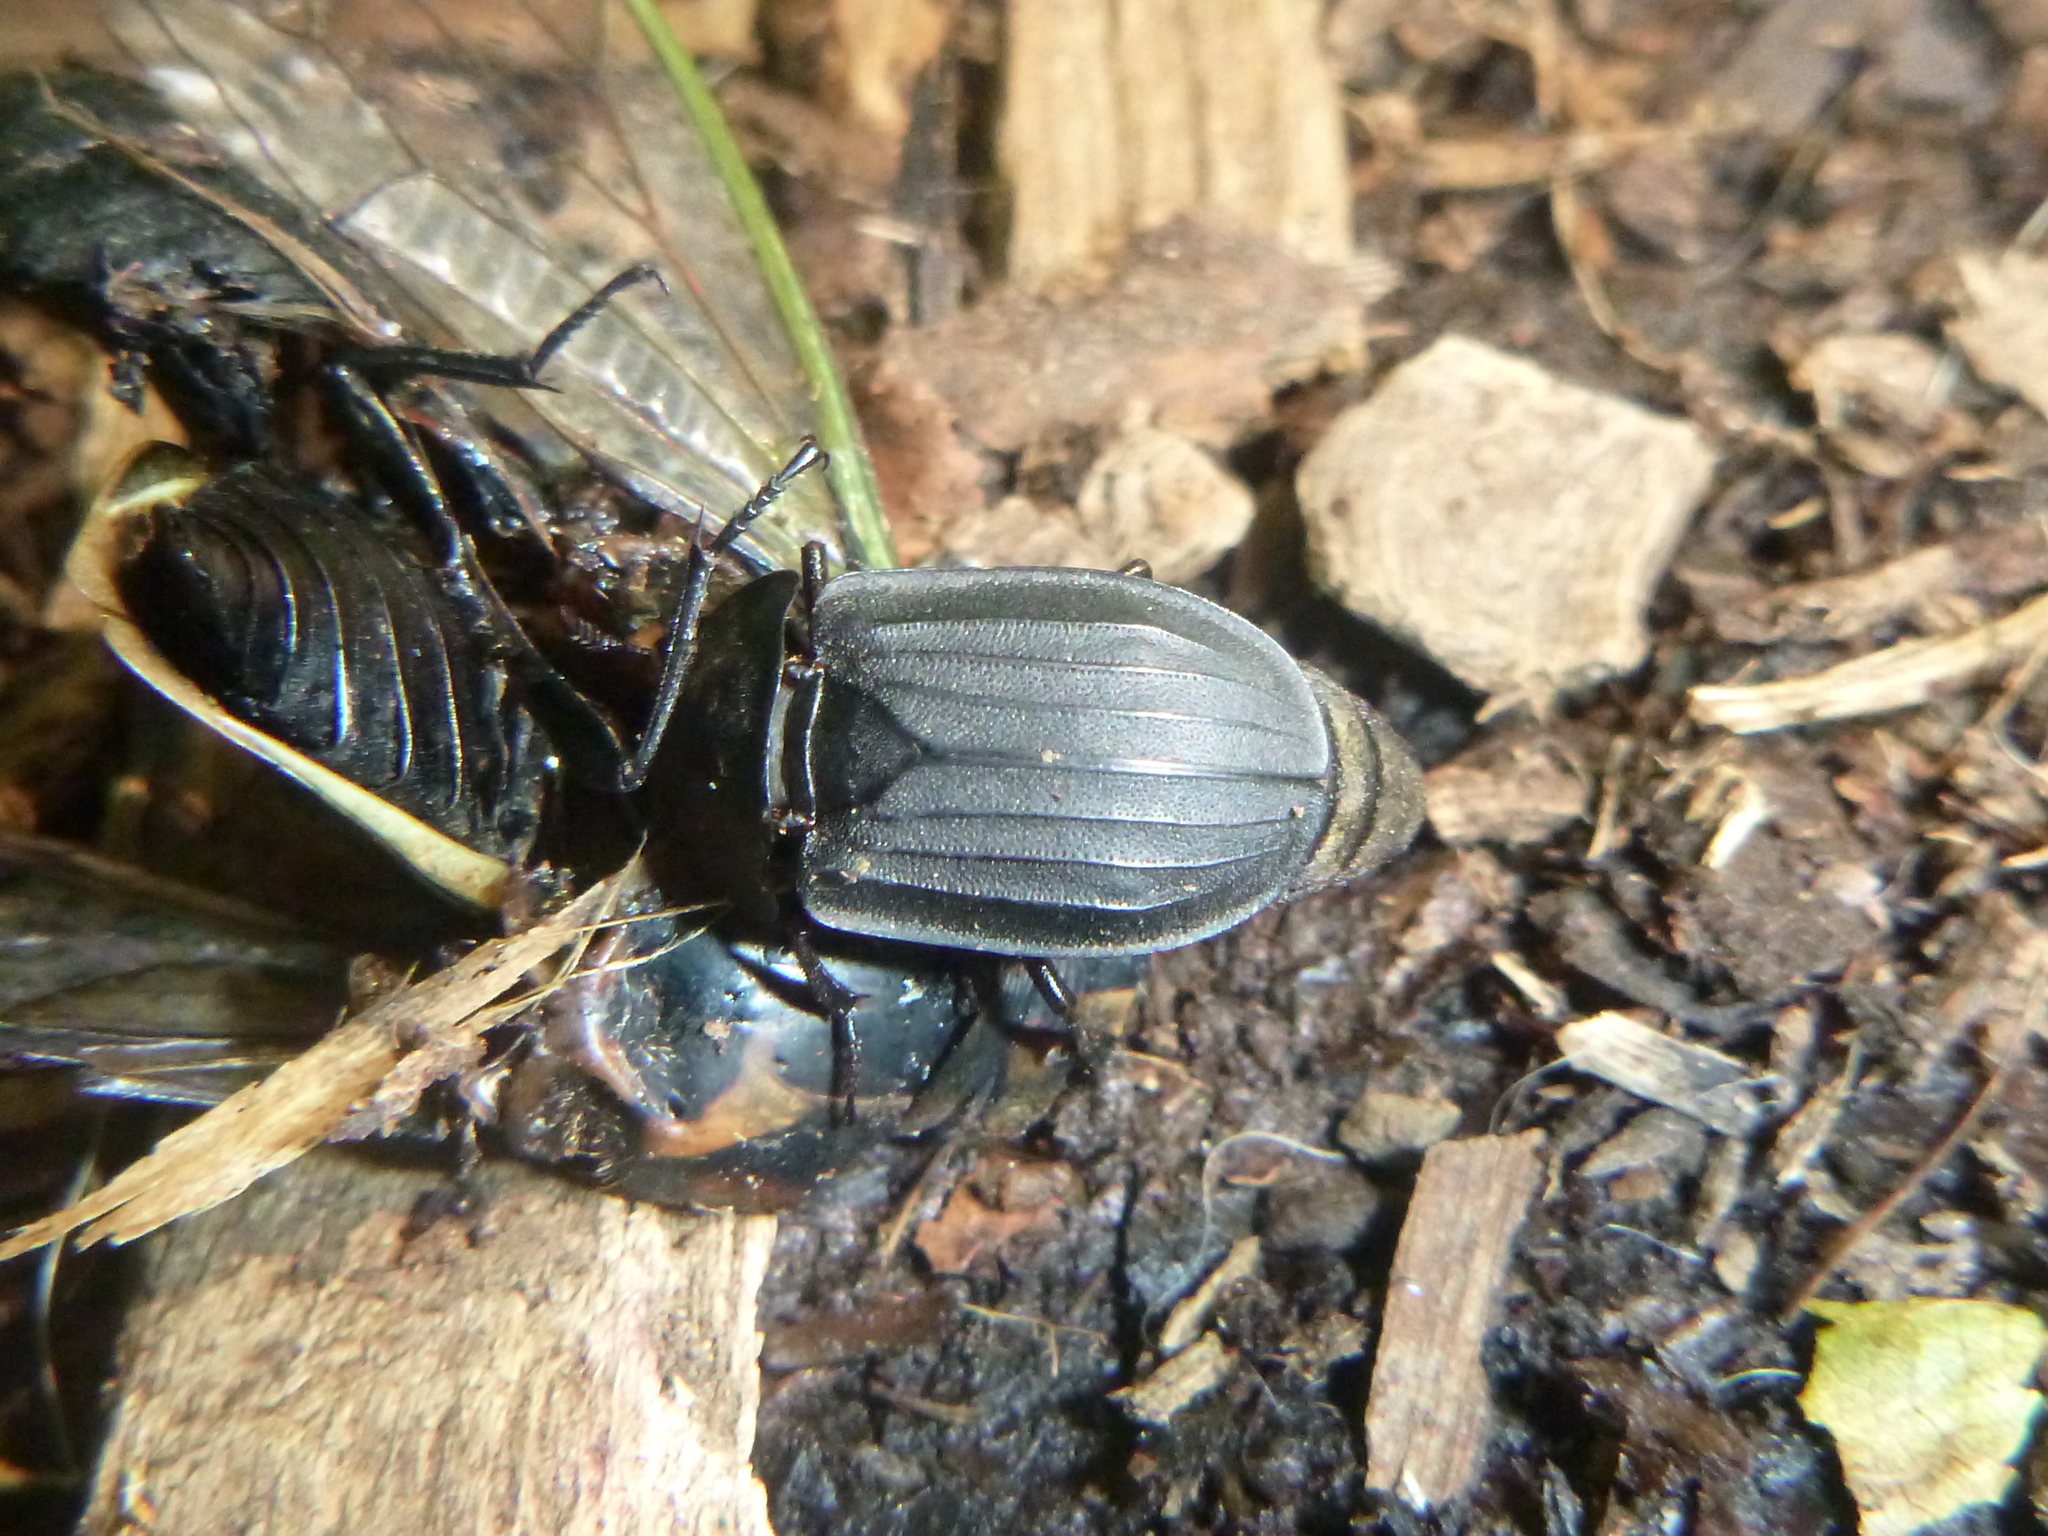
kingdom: Animalia
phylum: Arthropoda
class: Insecta
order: Coleoptera
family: Staphylinidae
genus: Oiceoptoma
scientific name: Oiceoptoma inaequale
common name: Ridged carrion beetle
